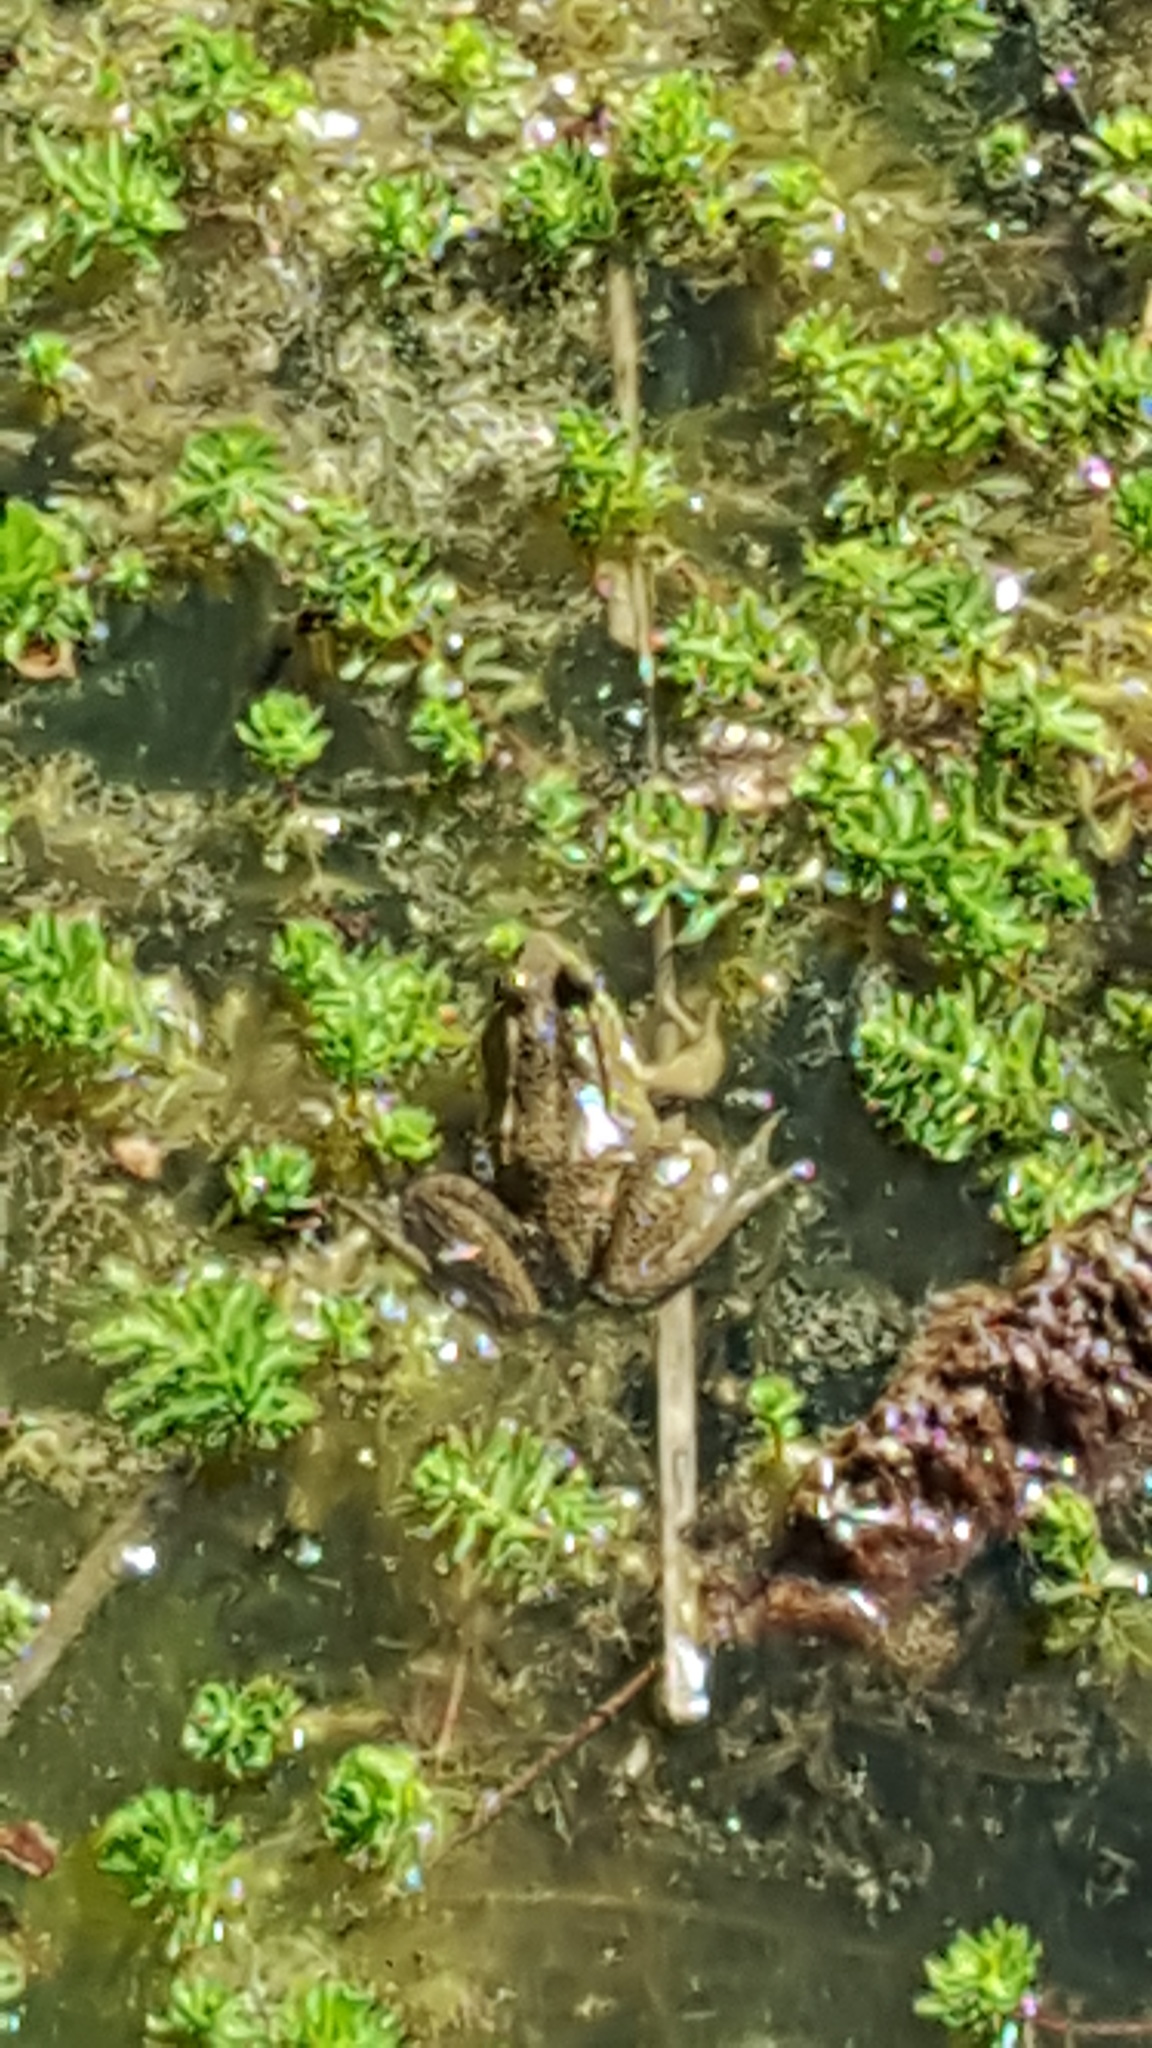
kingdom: Animalia
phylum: Chordata
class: Amphibia
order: Anura
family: Ranidae
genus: Lithobates
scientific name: Lithobates clamitans
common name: Green frog
